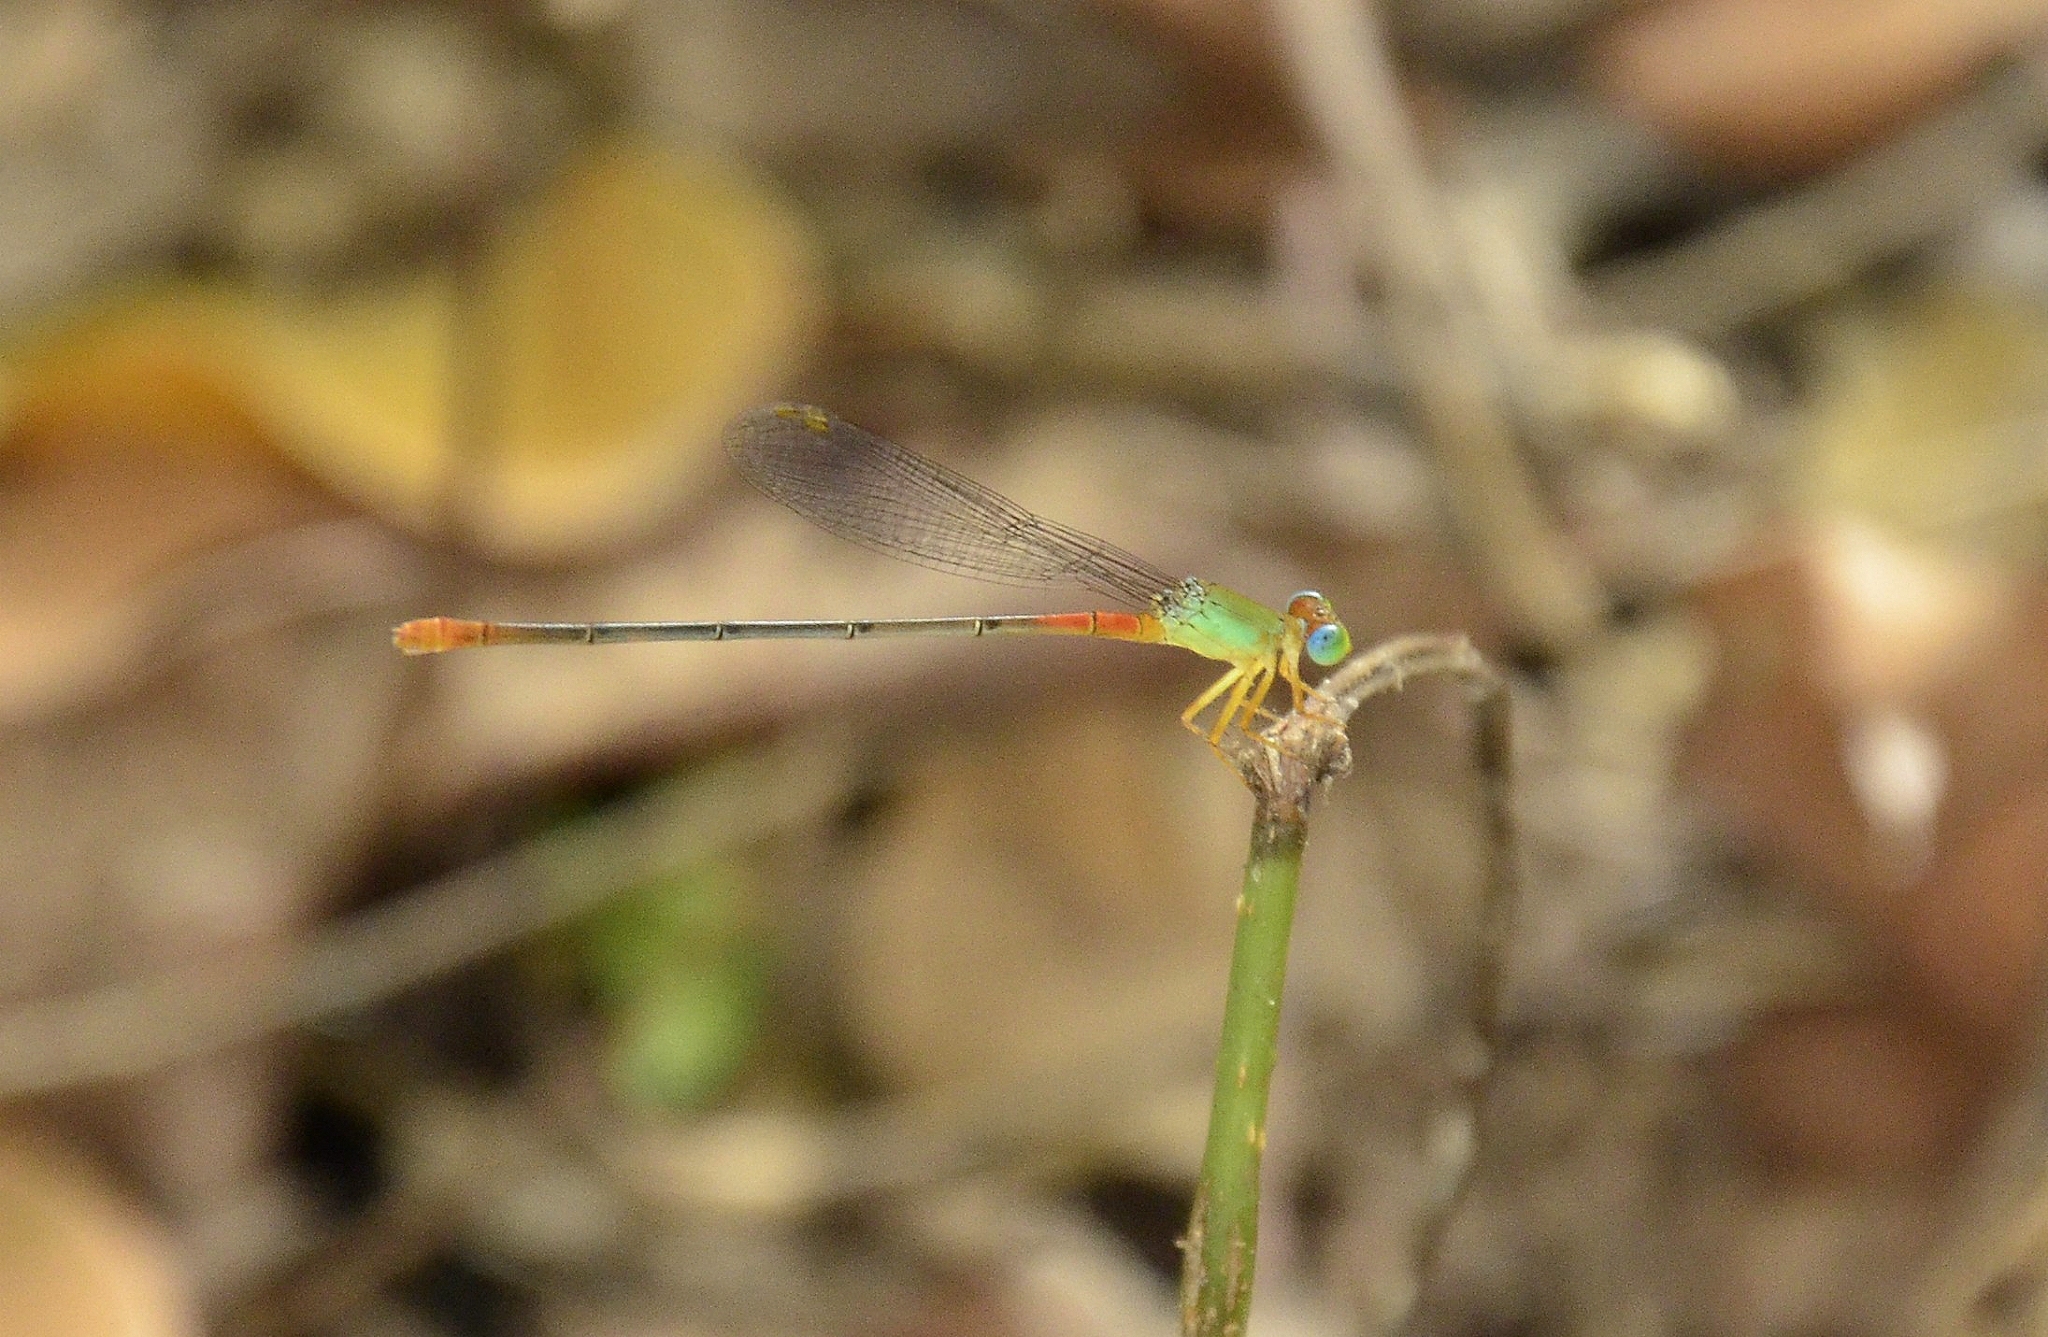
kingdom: Animalia
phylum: Arthropoda
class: Insecta
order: Odonata
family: Coenagrionidae
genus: Ceriagrion
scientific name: Ceriagrion cerinorubellum
